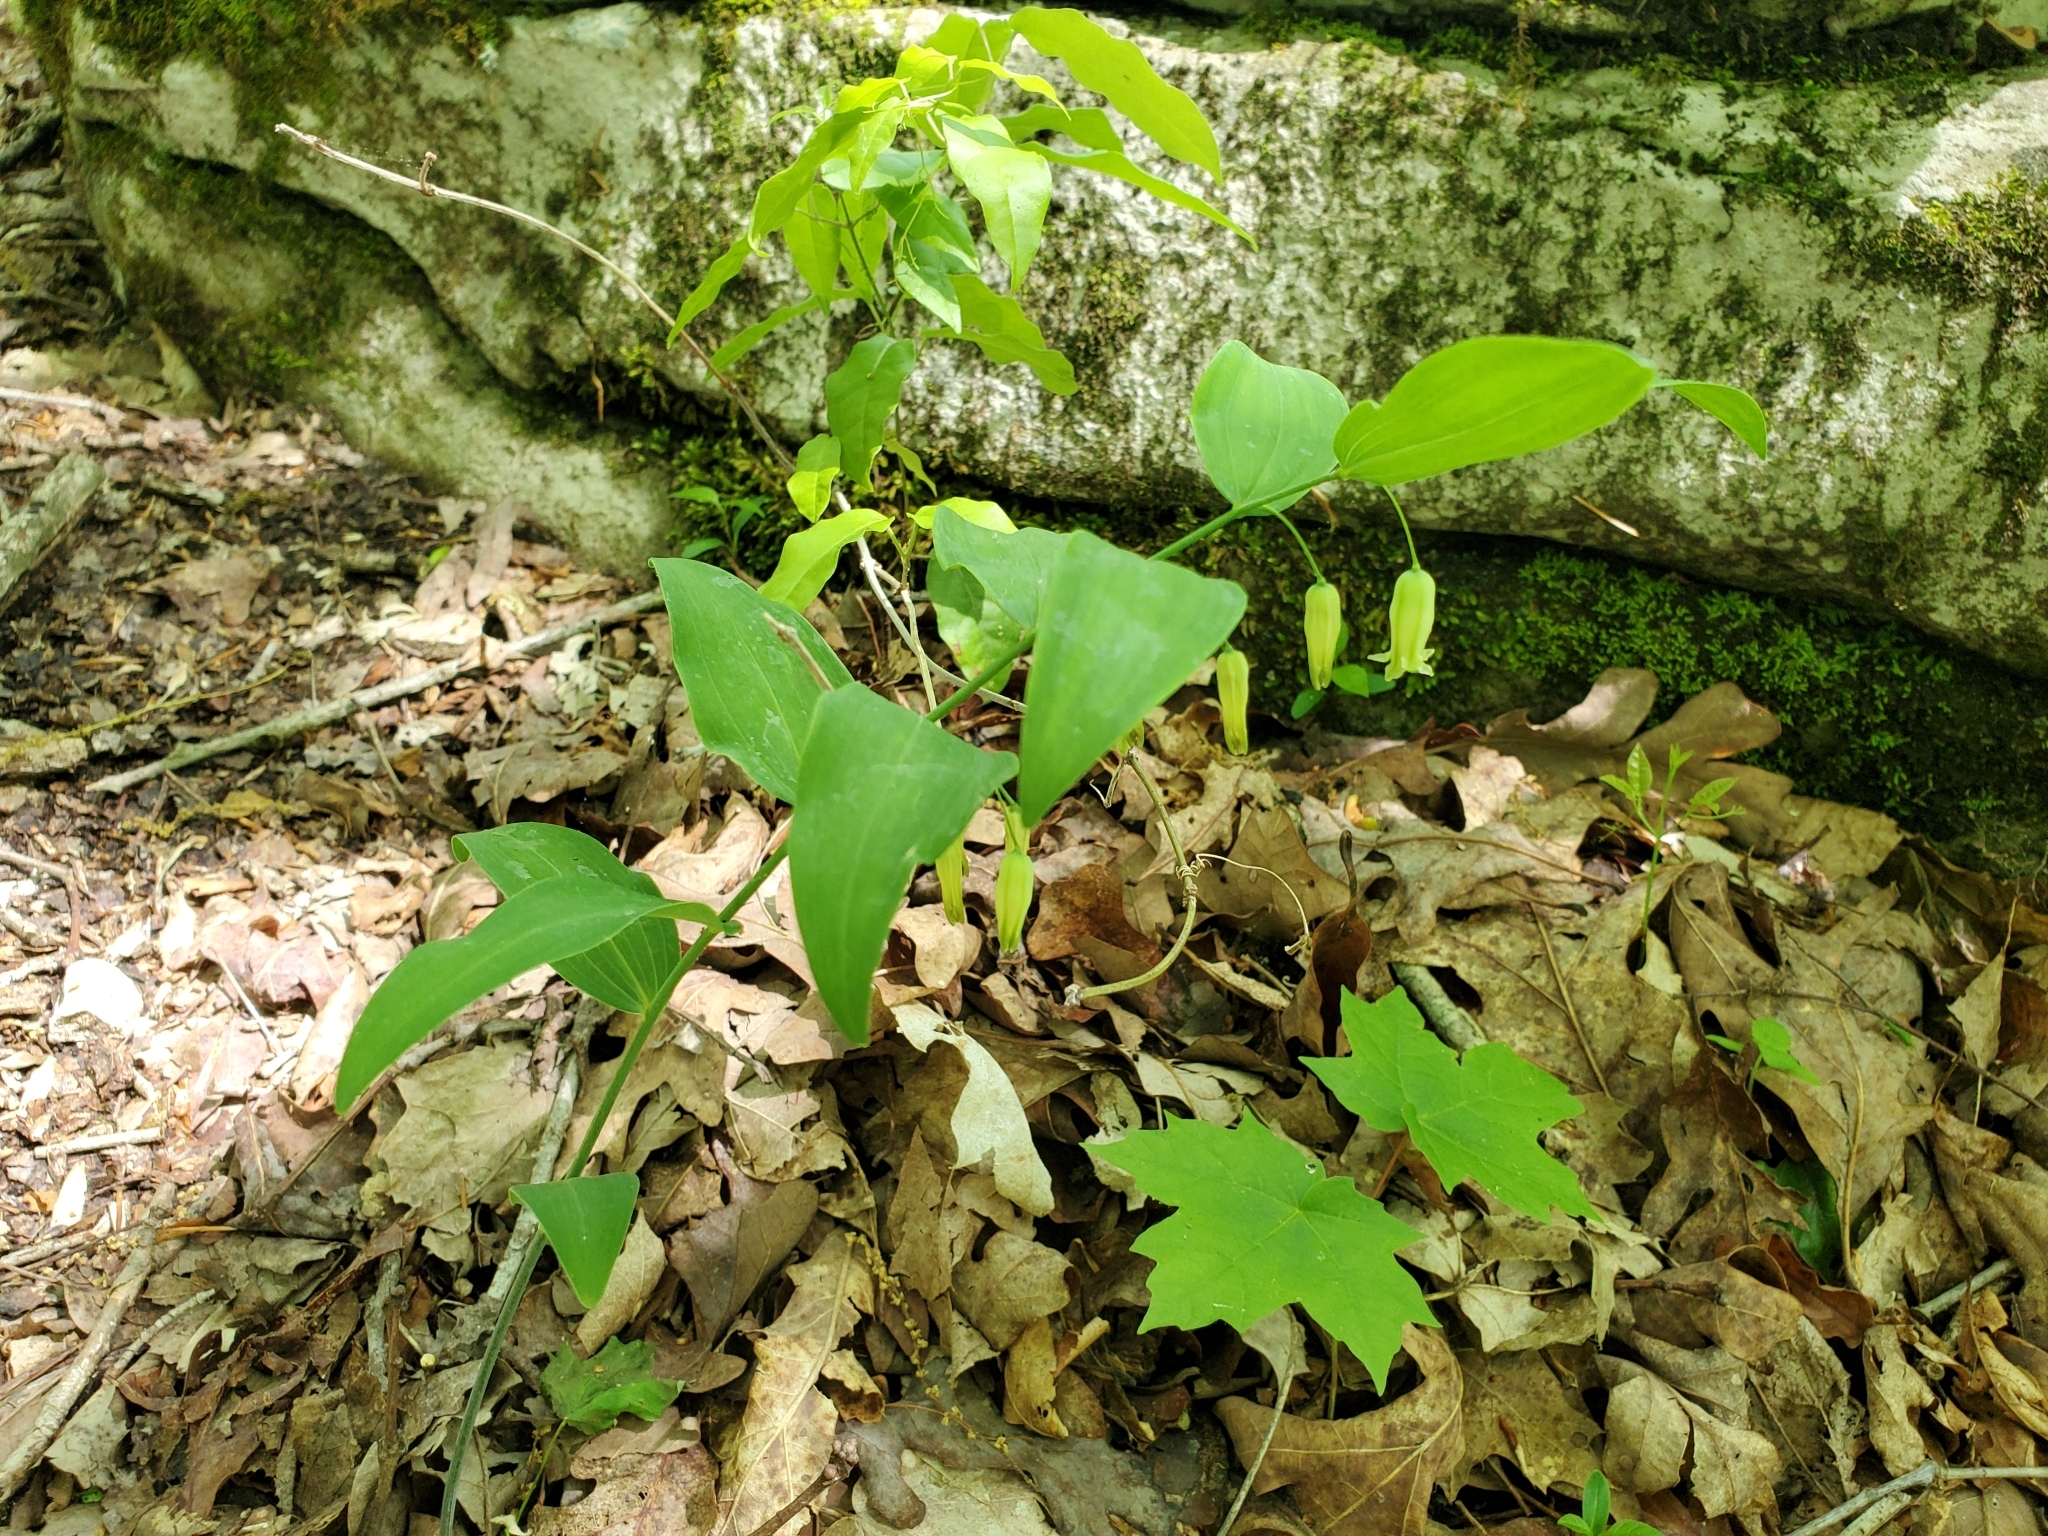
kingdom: Plantae
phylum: Tracheophyta
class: Liliopsida
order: Asparagales
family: Asparagaceae
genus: Polygonatum
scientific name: Polygonatum biflorum
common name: American solomon's-seal
